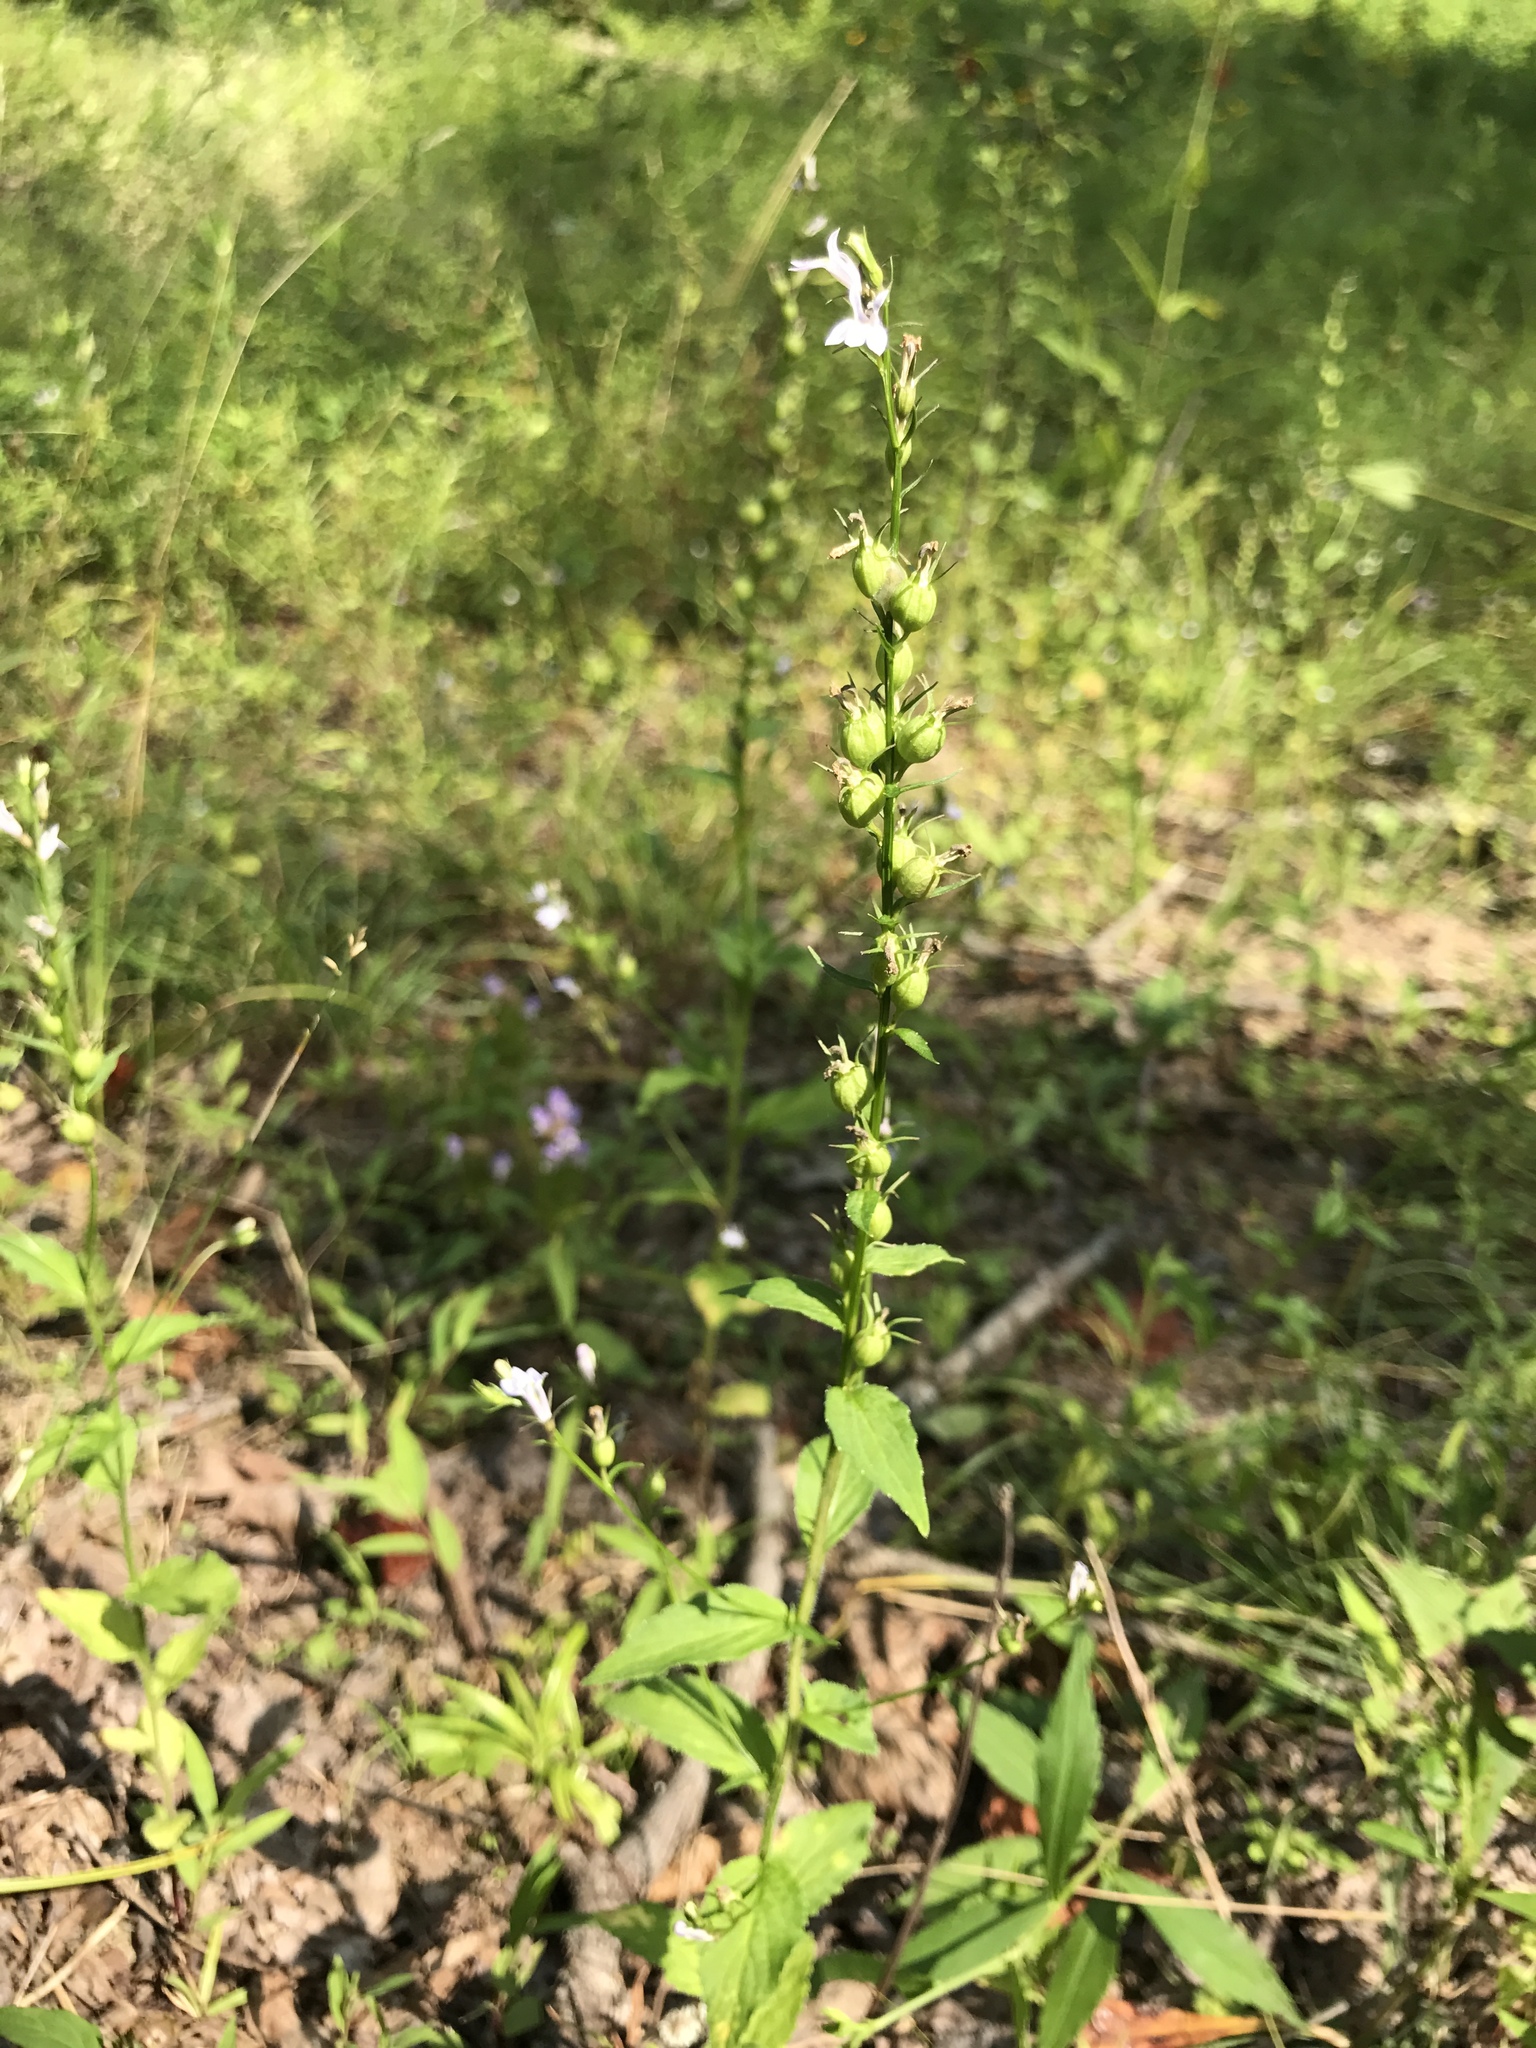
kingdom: Plantae
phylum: Tracheophyta
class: Magnoliopsida
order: Asterales
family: Campanulaceae
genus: Lobelia
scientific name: Lobelia inflata
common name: Indian tobacco
